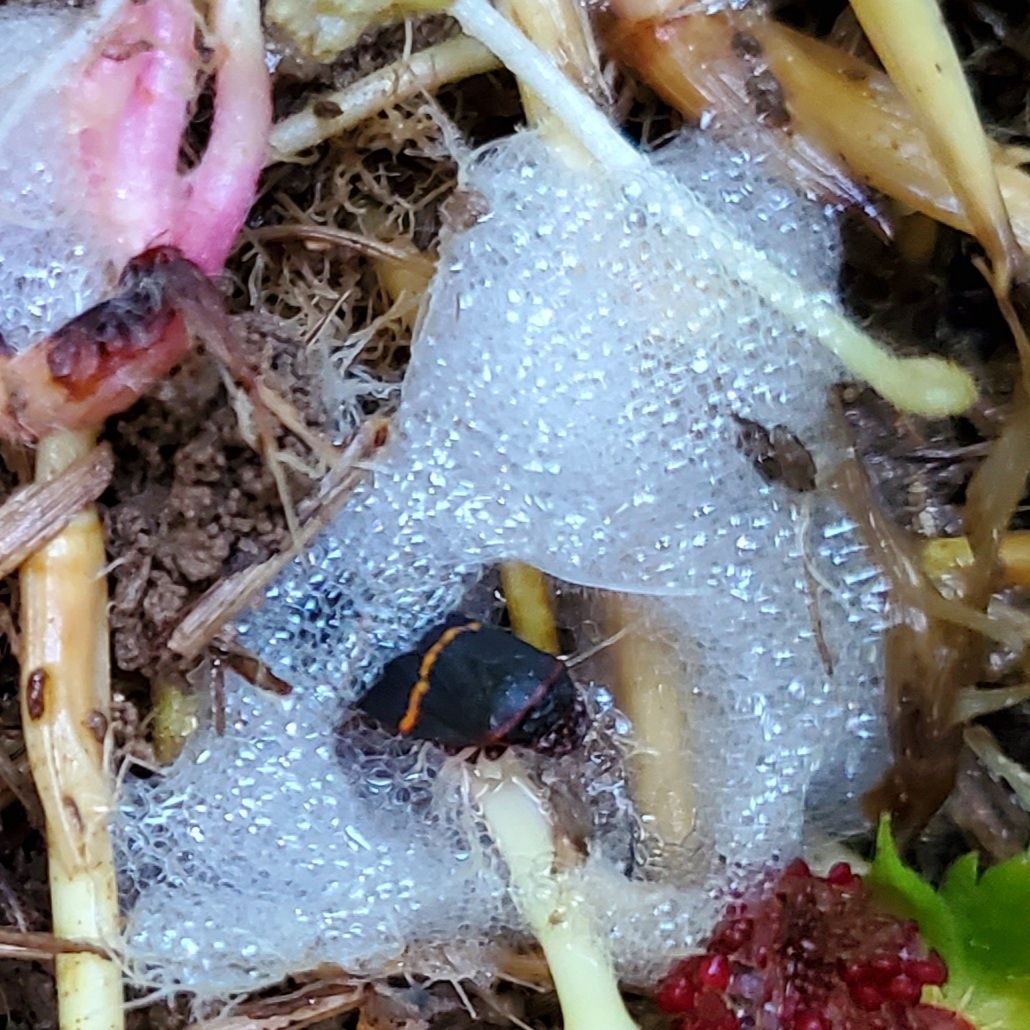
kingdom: Animalia
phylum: Arthropoda
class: Insecta
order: Hemiptera
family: Cercopidae
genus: Prosapia
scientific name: Prosapia bicincta
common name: Twolined spittlebug
